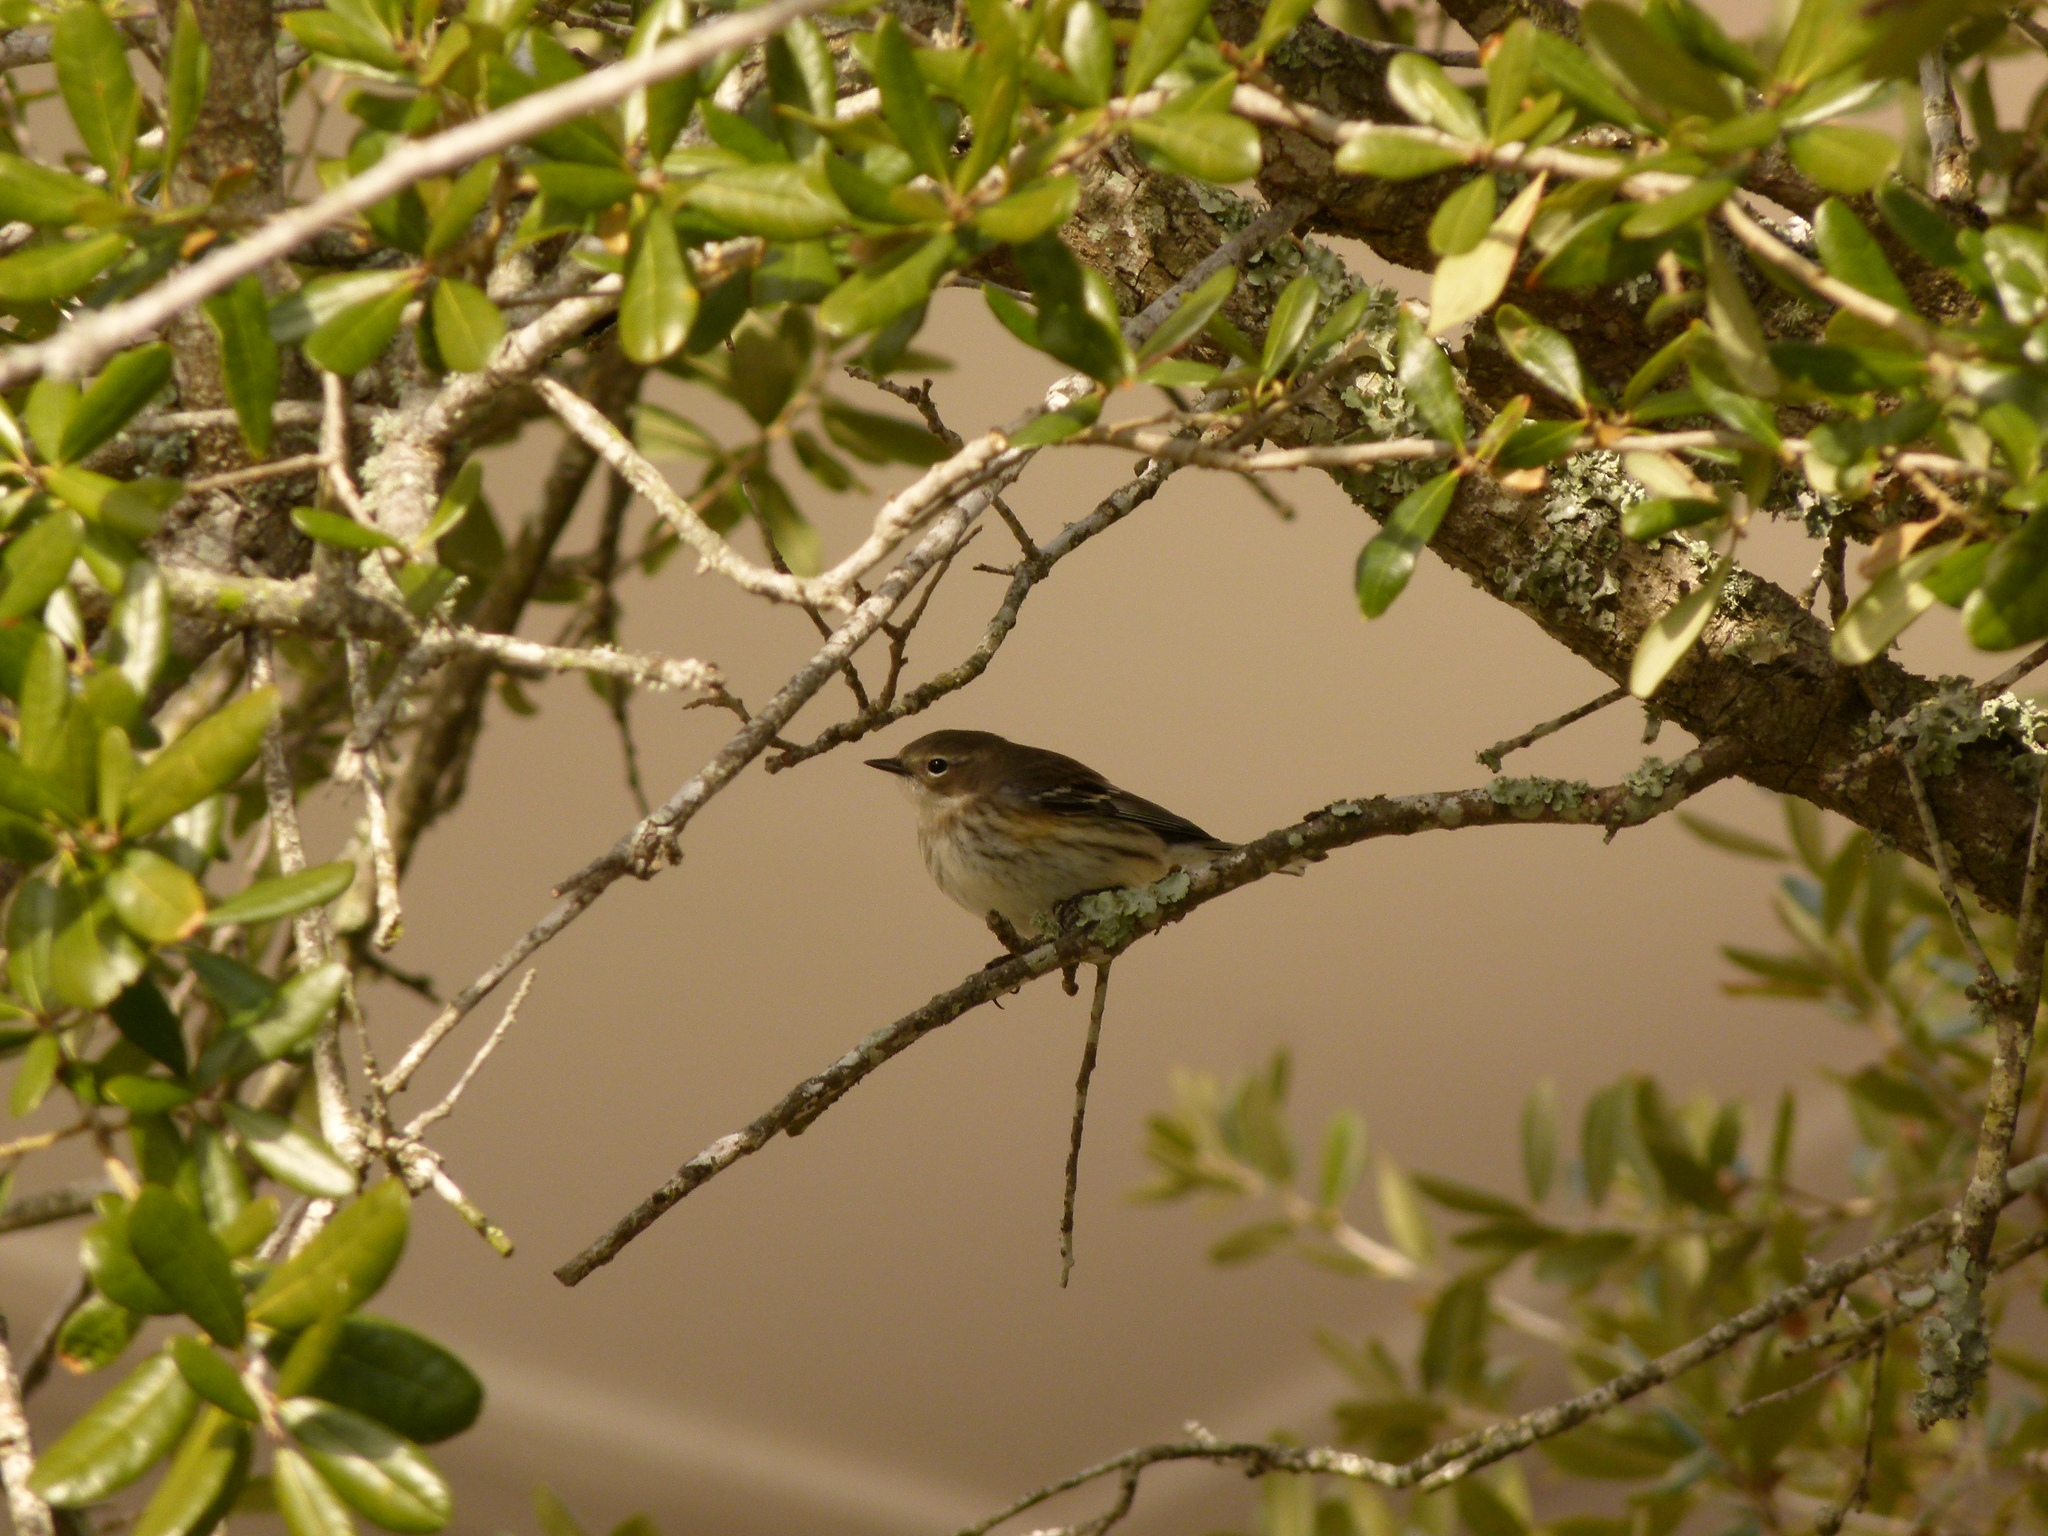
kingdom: Animalia
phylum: Chordata
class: Aves
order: Passeriformes
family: Parulidae
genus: Setophaga
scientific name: Setophaga coronata
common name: Myrtle warbler
